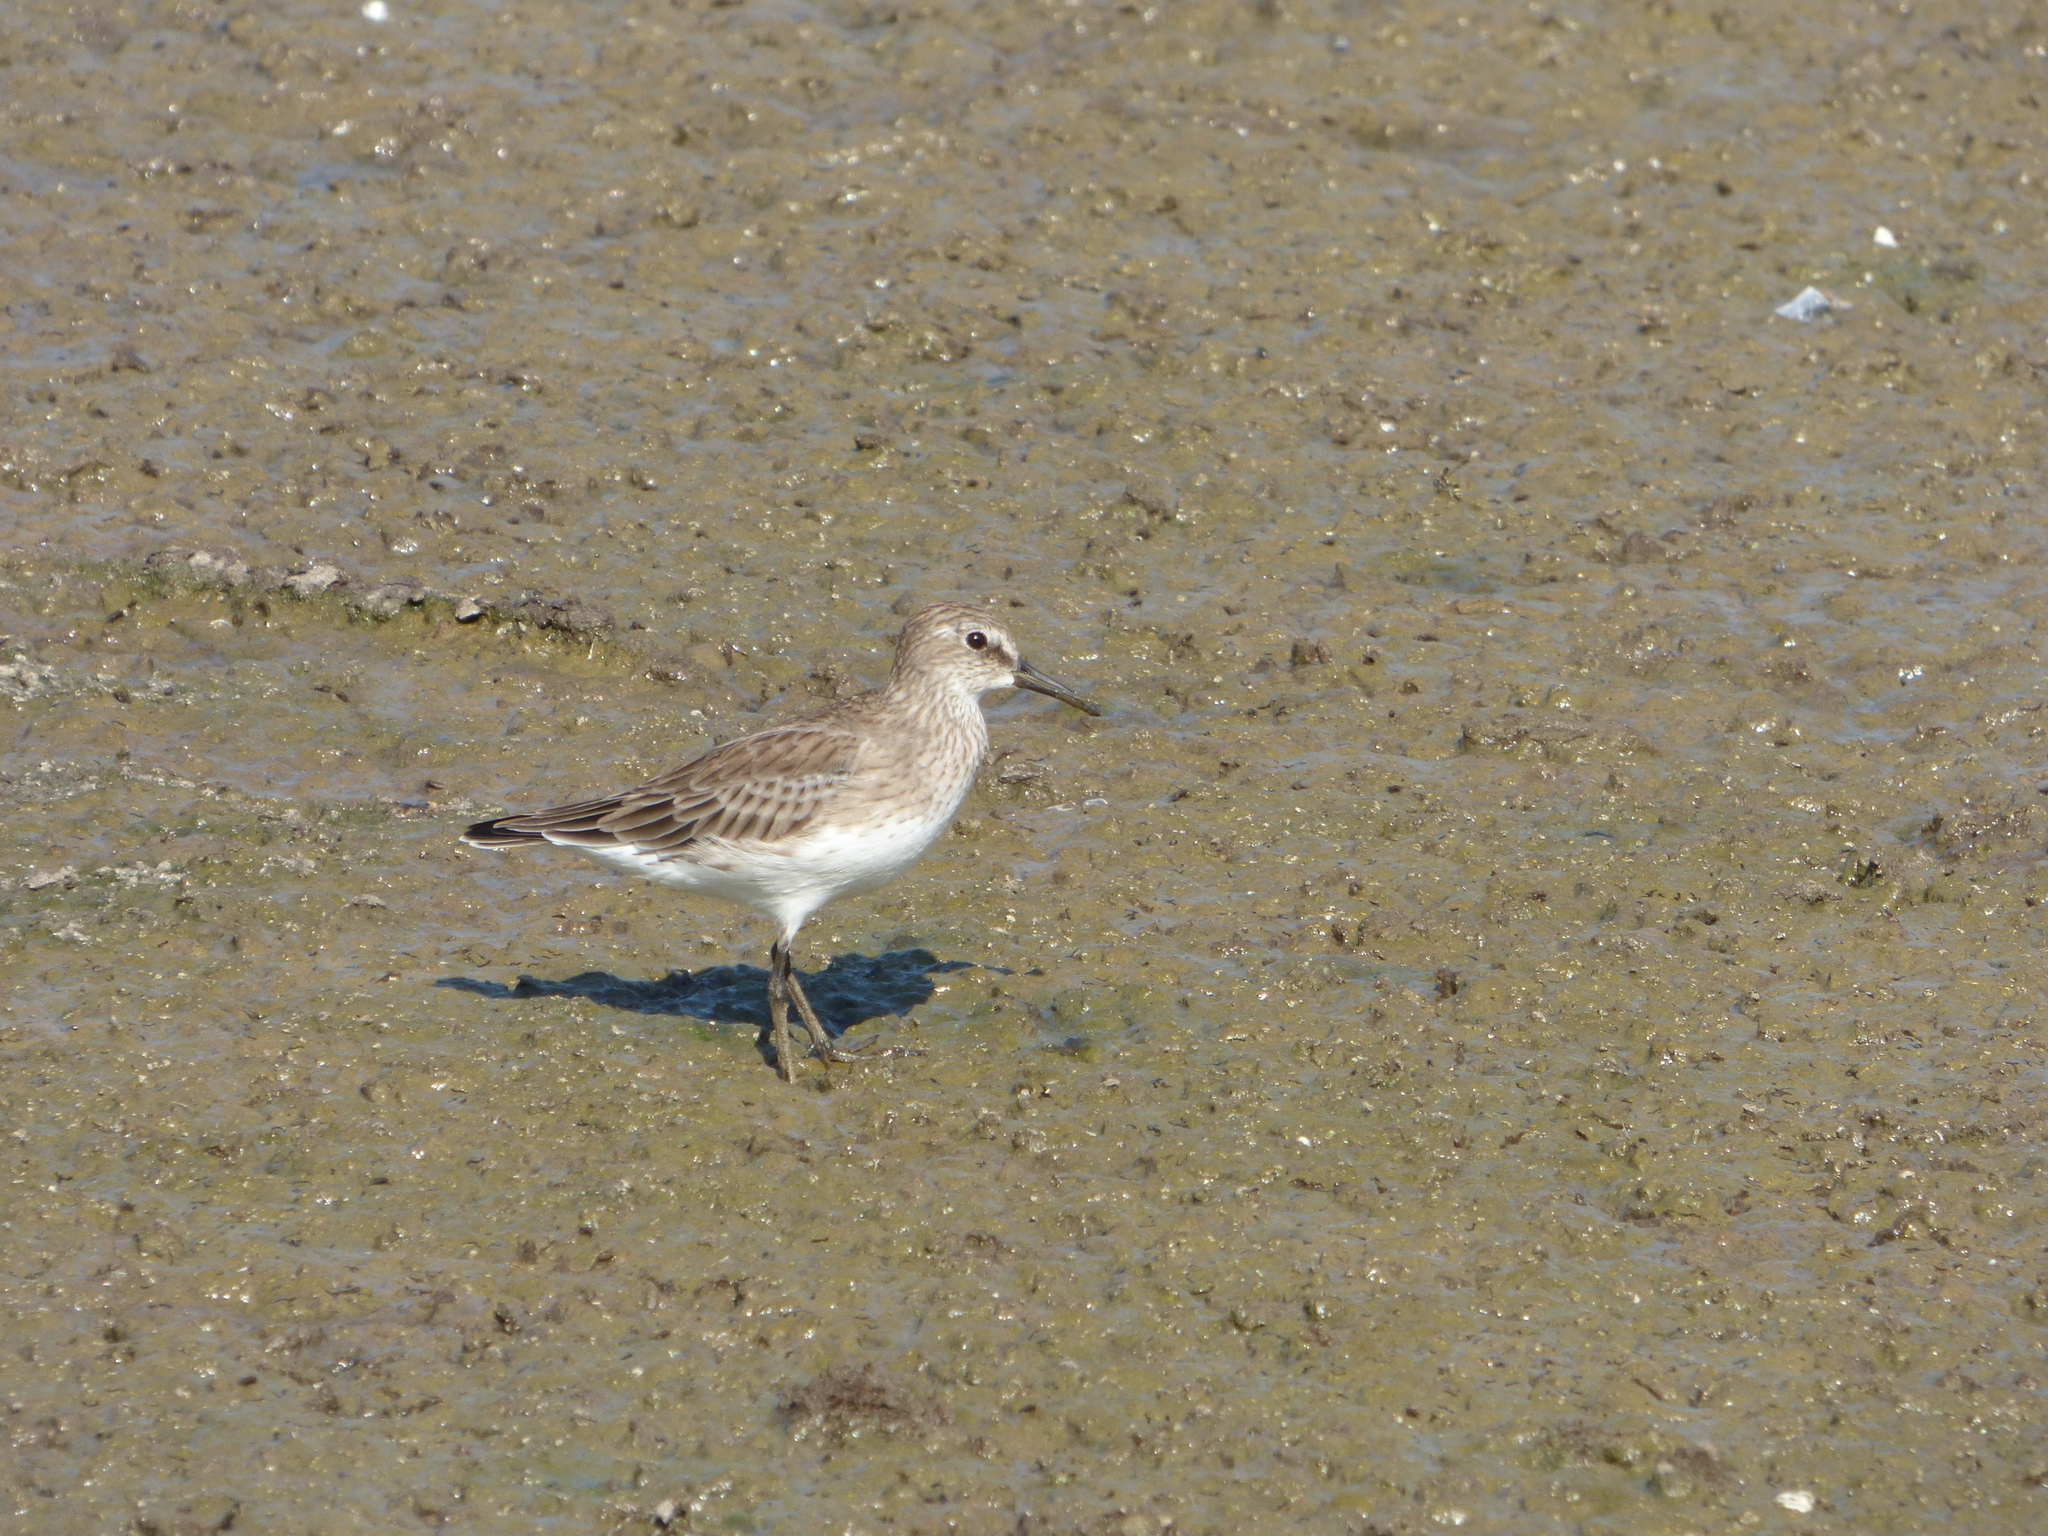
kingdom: Animalia
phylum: Chordata
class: Aves
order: Charadriiformes
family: Scolopacidae
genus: Calidris
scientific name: Calidris fuscicollis
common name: White-rumped sandpiper
